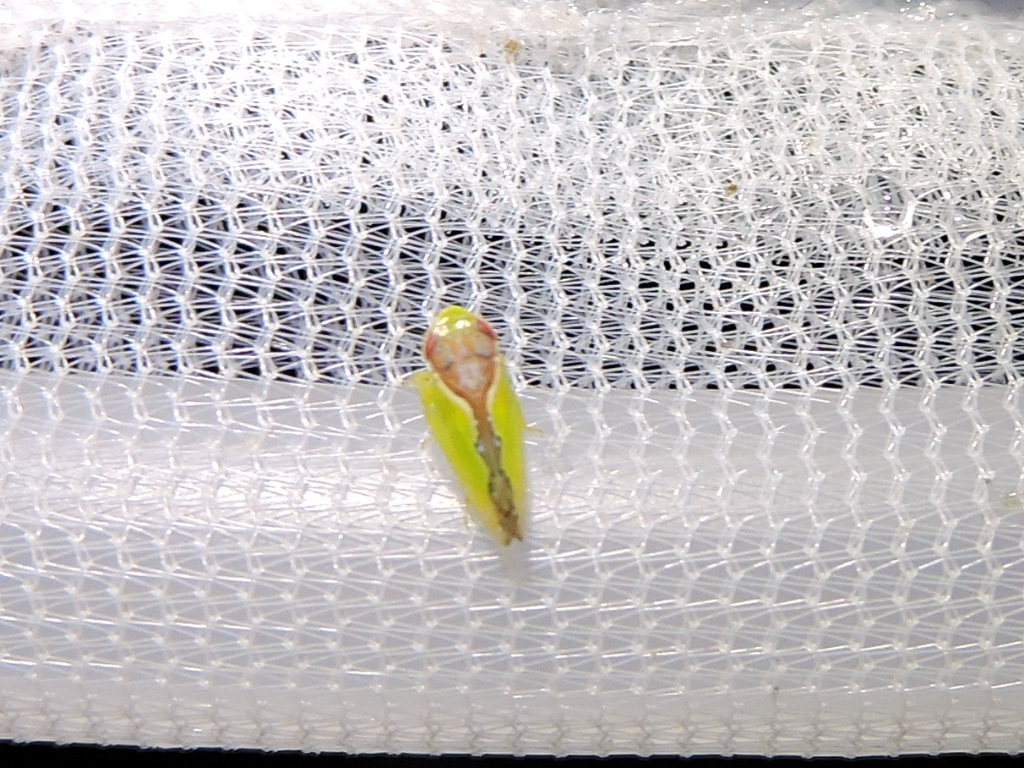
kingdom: Animalia
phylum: Arthropoda
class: Insecta
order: Hemiptera
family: Cicadellidae
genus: Omansobara ing
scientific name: Omansobara ing Omansobara palliolata
